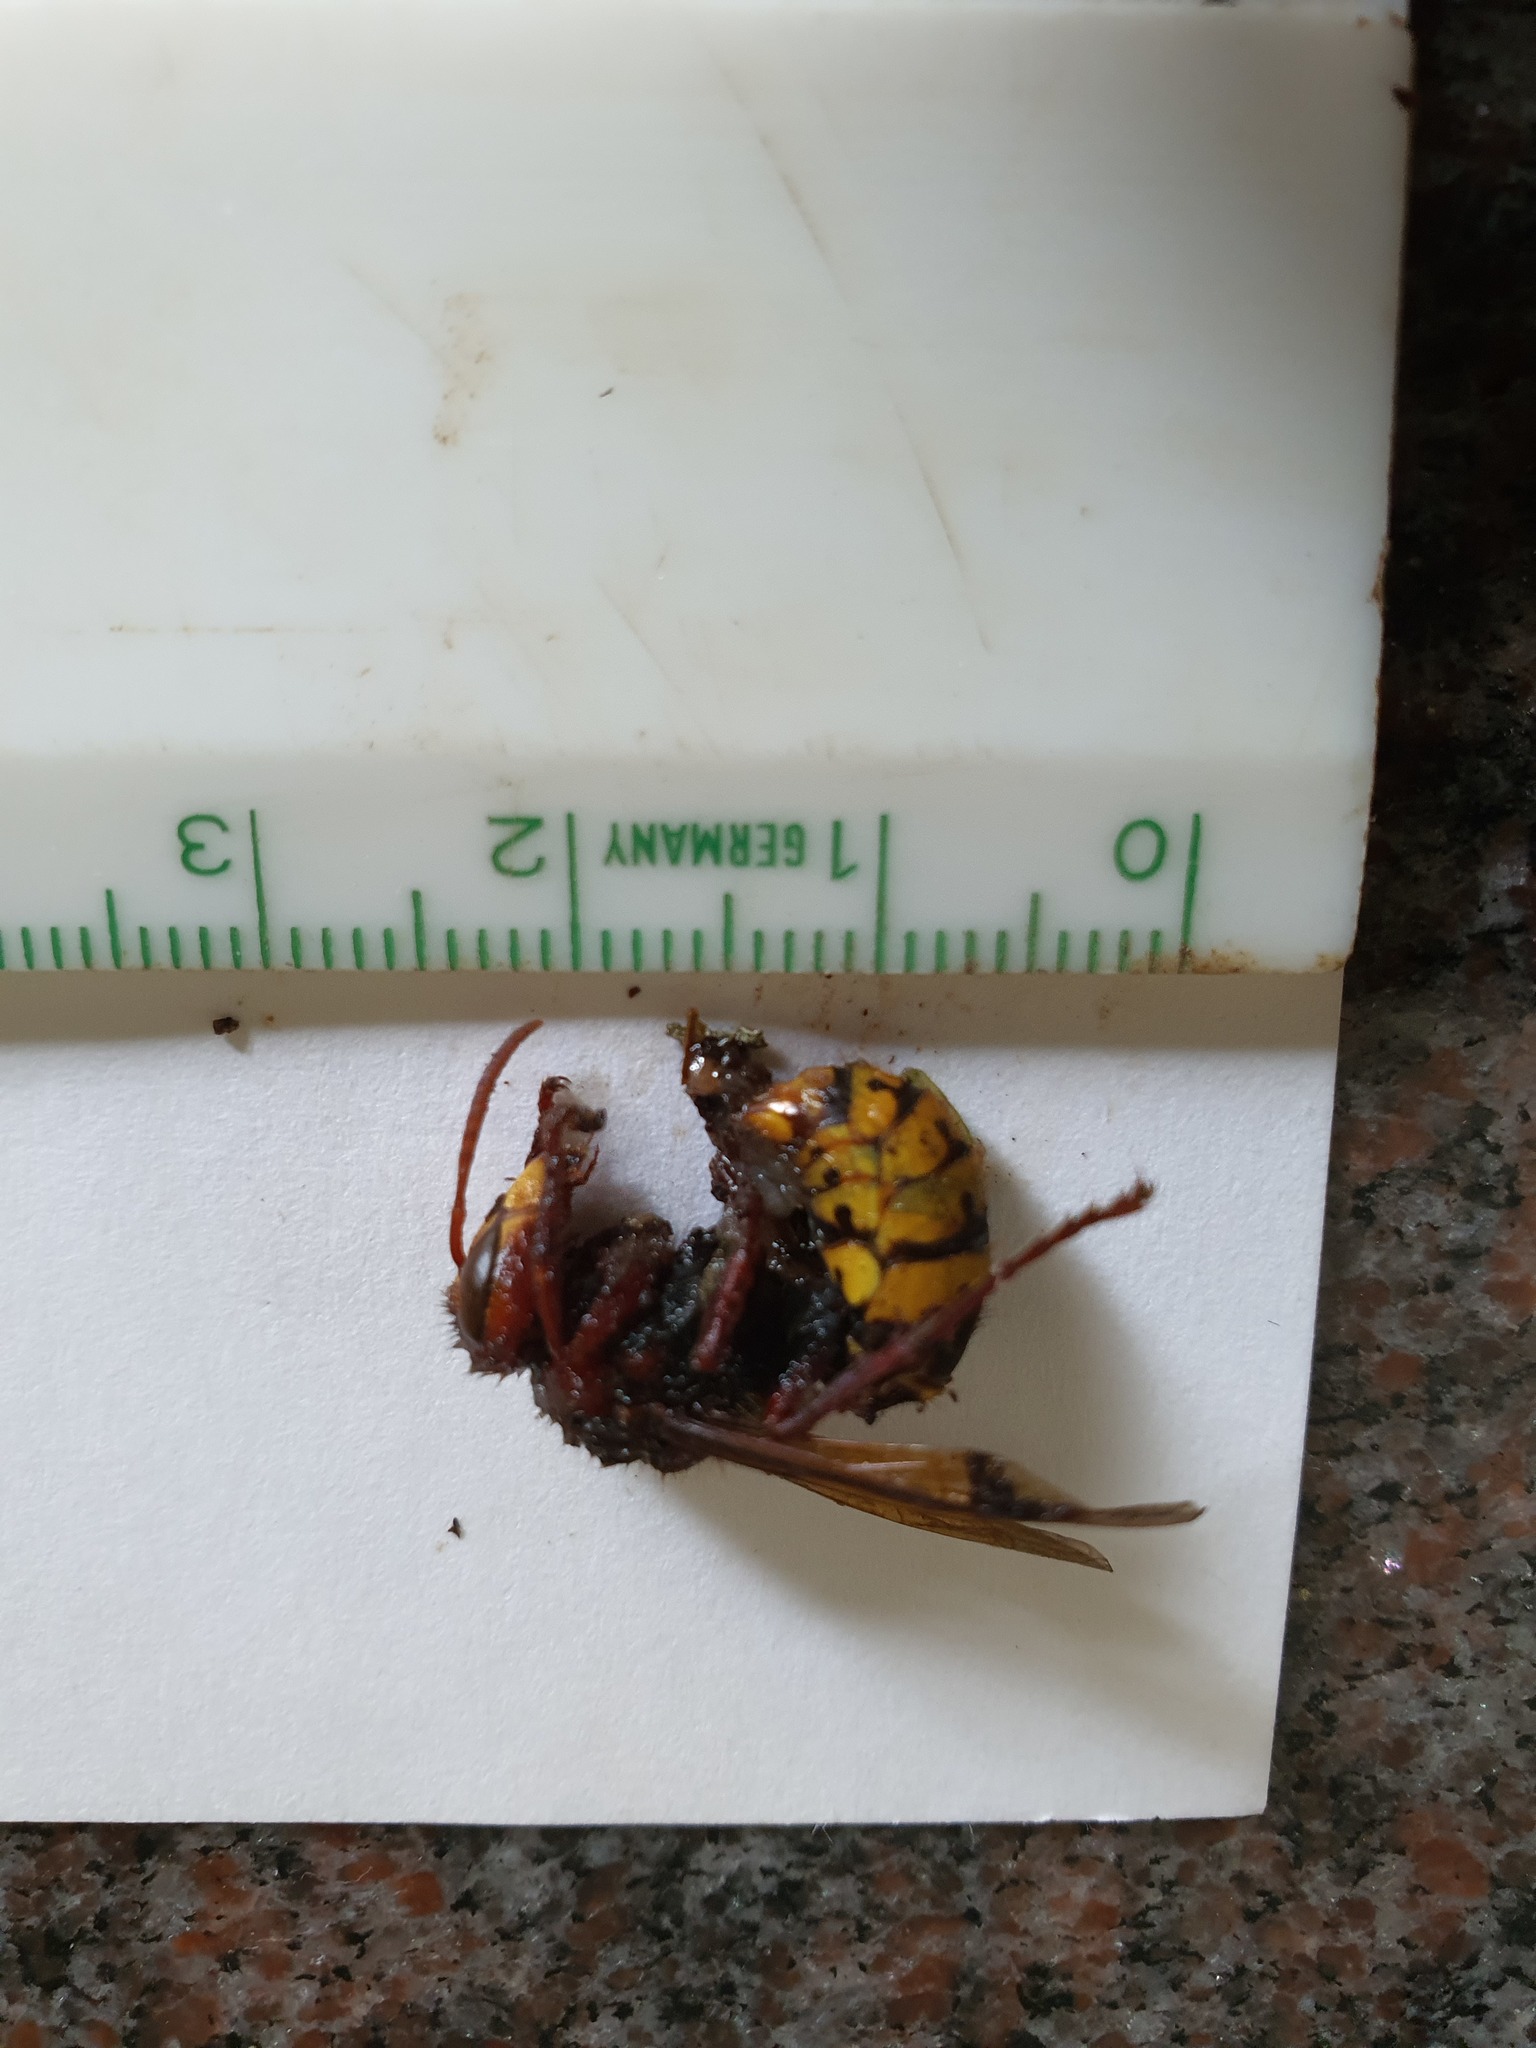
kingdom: Animalia
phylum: Arthropoda
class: Insecta
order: Hymenoptera
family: Vespidae
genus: Vespa
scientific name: Vespa crabro
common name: Hornet
